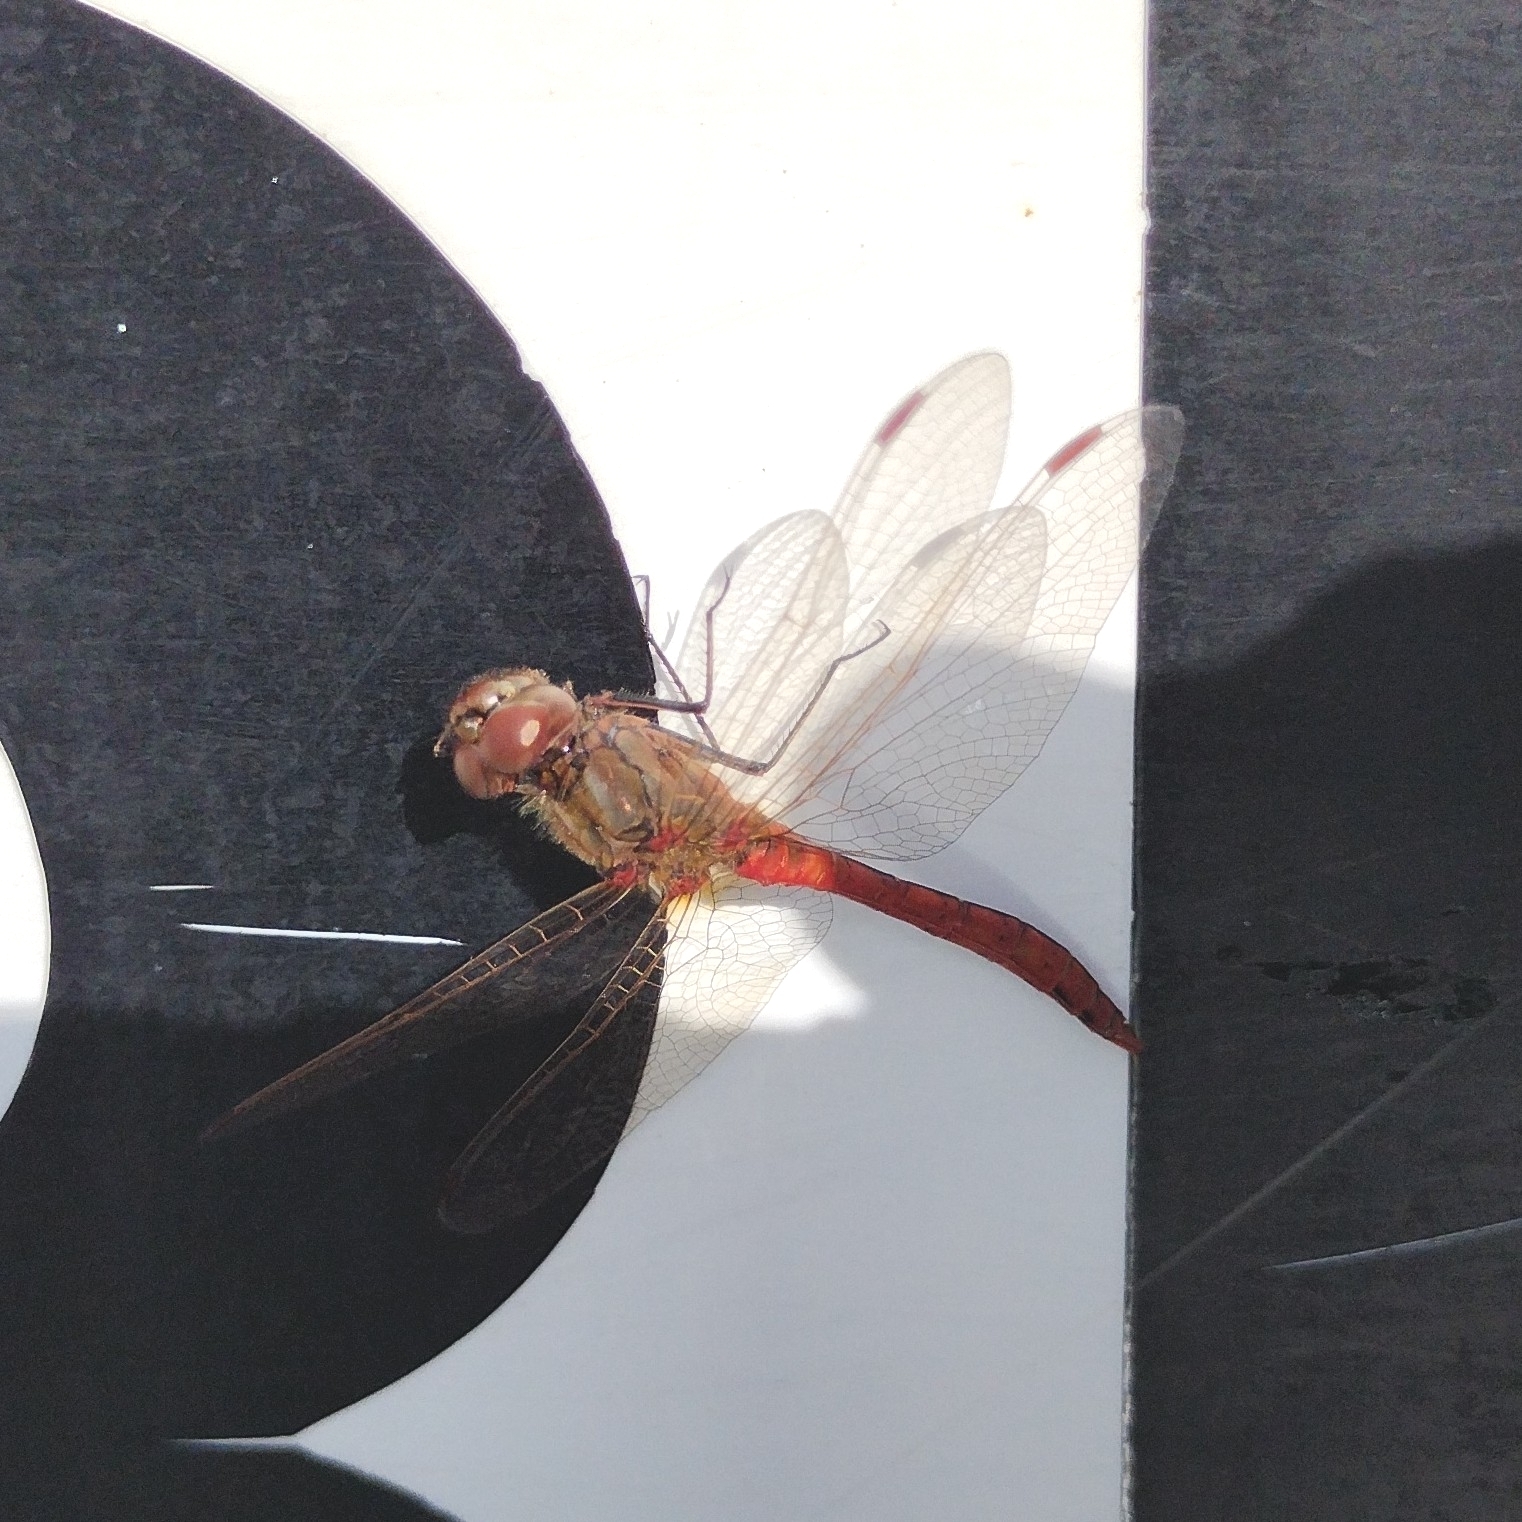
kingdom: Animalia
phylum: Arthropoda
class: Insecta
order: Odonata
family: Libellulidae
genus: Sympetrum
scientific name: Sympetrum vulgatum
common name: Vagrant darter
